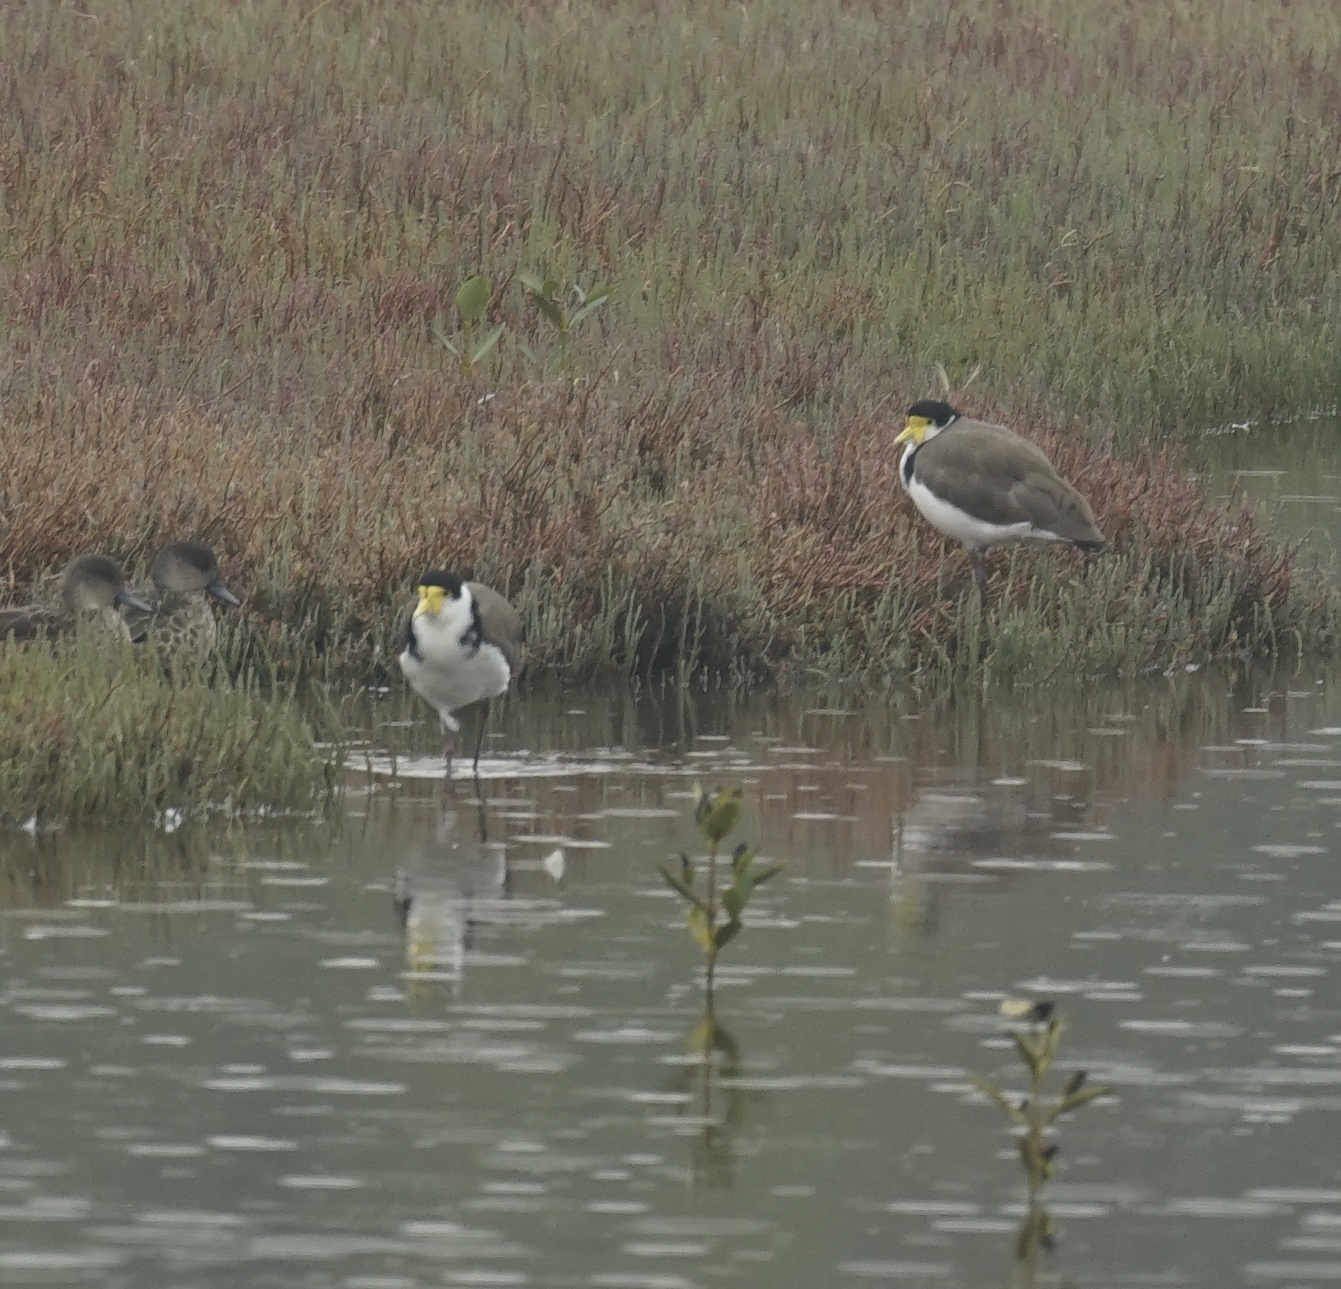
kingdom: Animalia
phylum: Chordata
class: Aves
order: Charadriiformes
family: Charadriidae
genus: Vanellus
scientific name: Vanellus miles
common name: Masked lapwing
